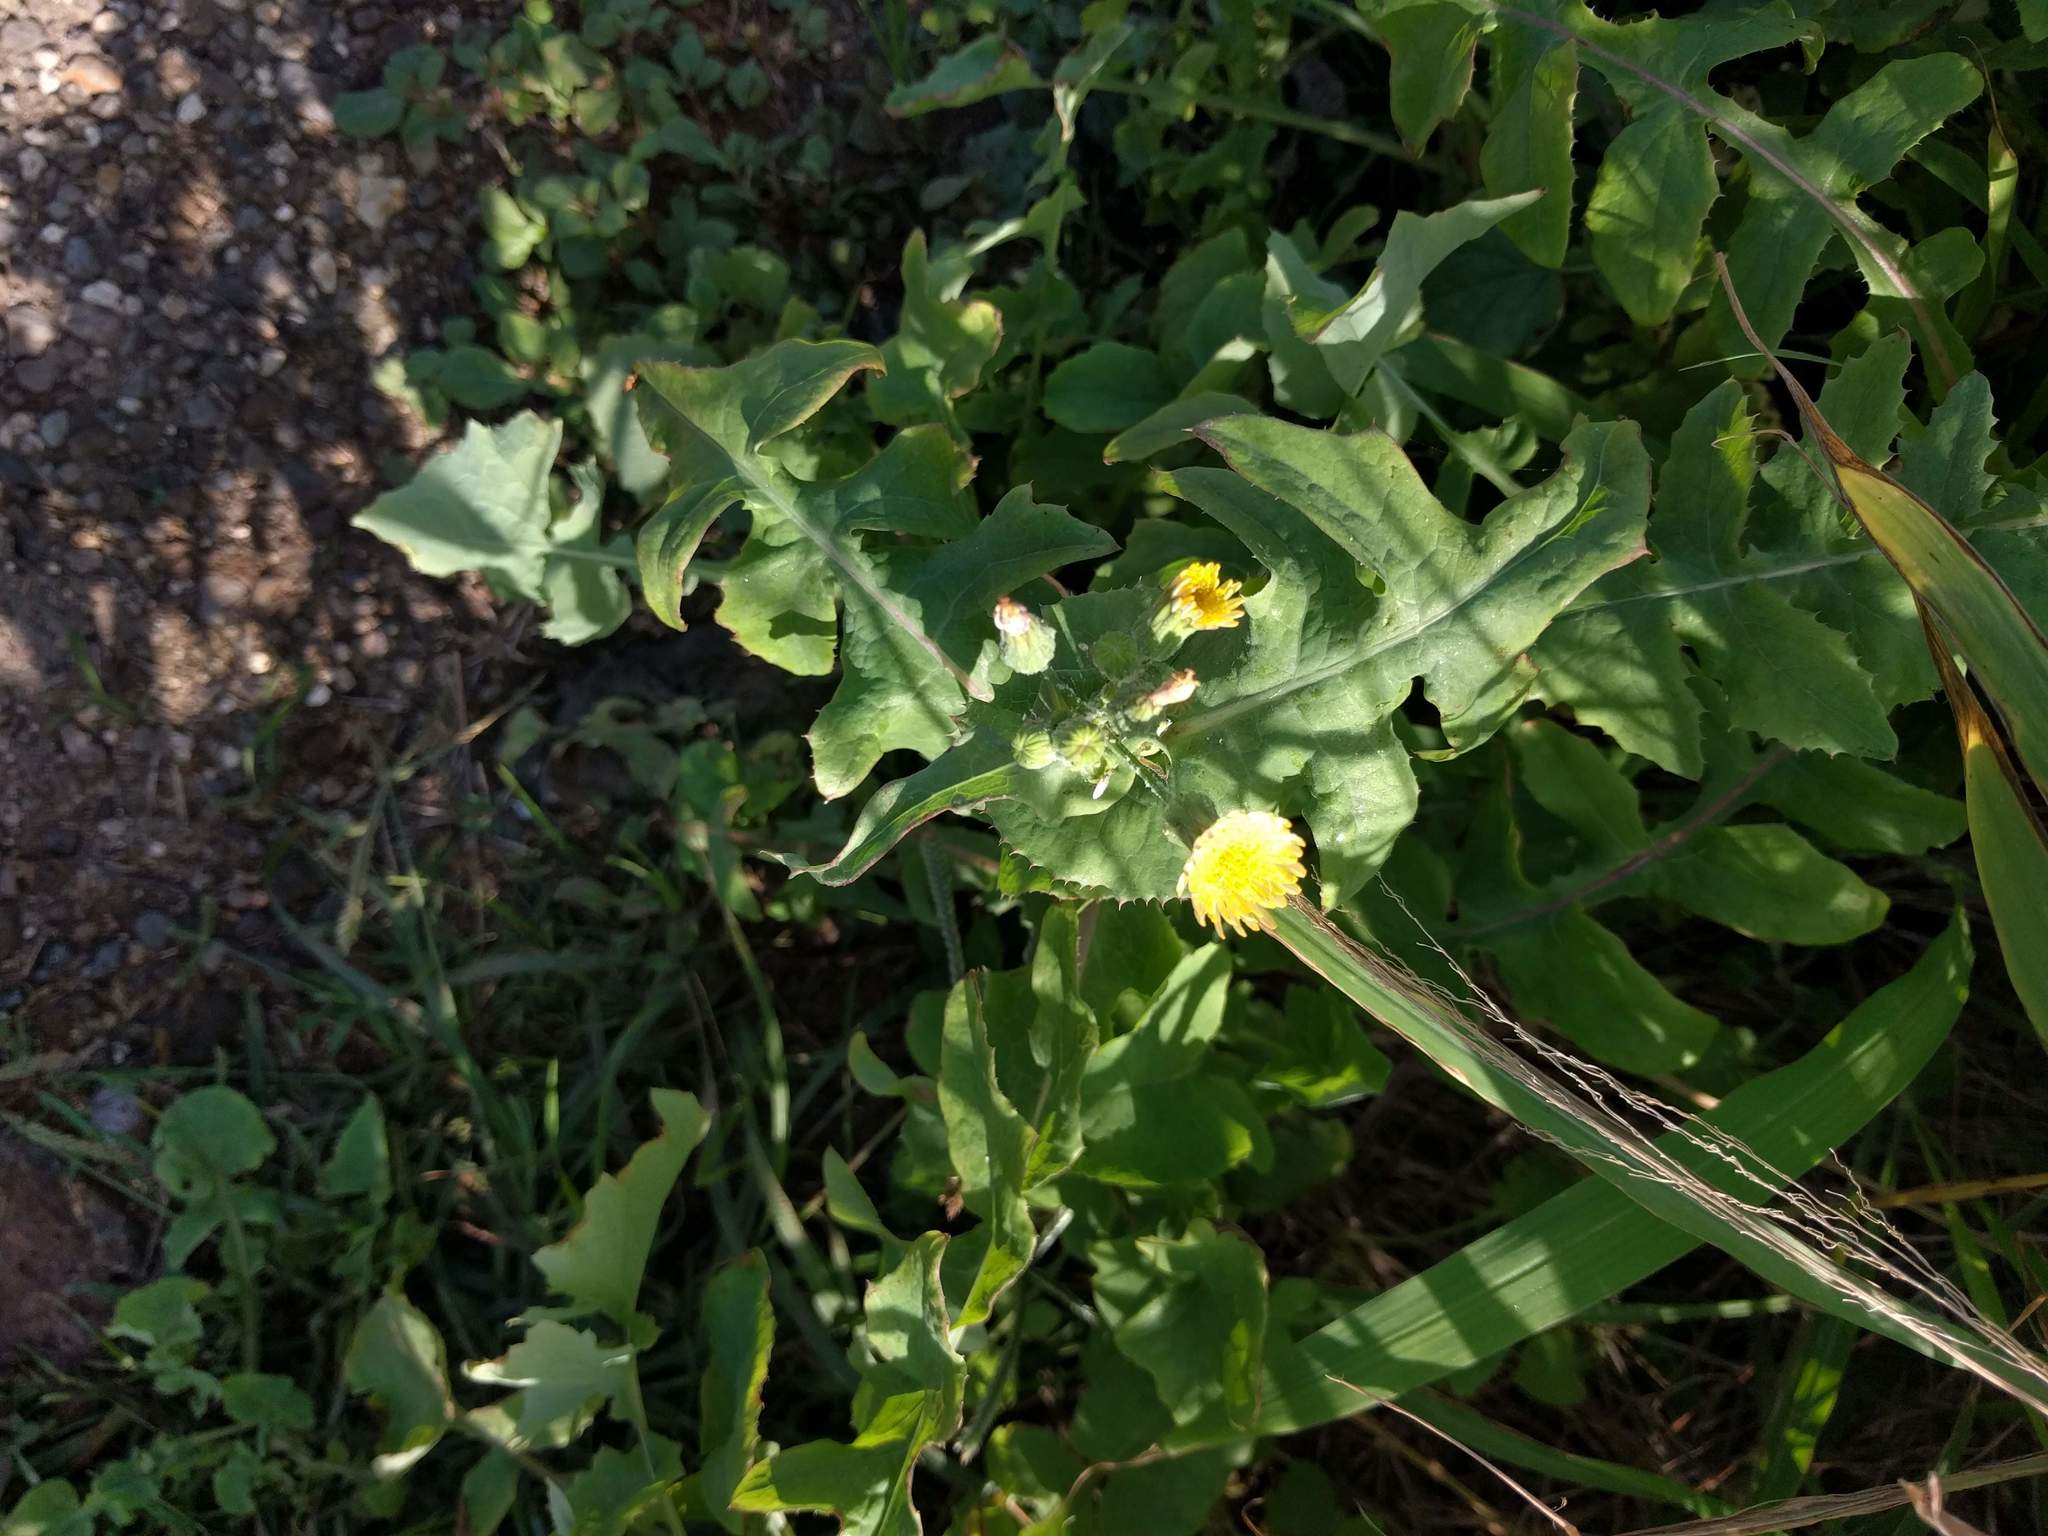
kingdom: Plantae
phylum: Tracheophyta
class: Magnoliopsida
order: Asterales
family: Asteraceae
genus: Sonchus
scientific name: Sonchus oleraceus
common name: Common sowthistle
